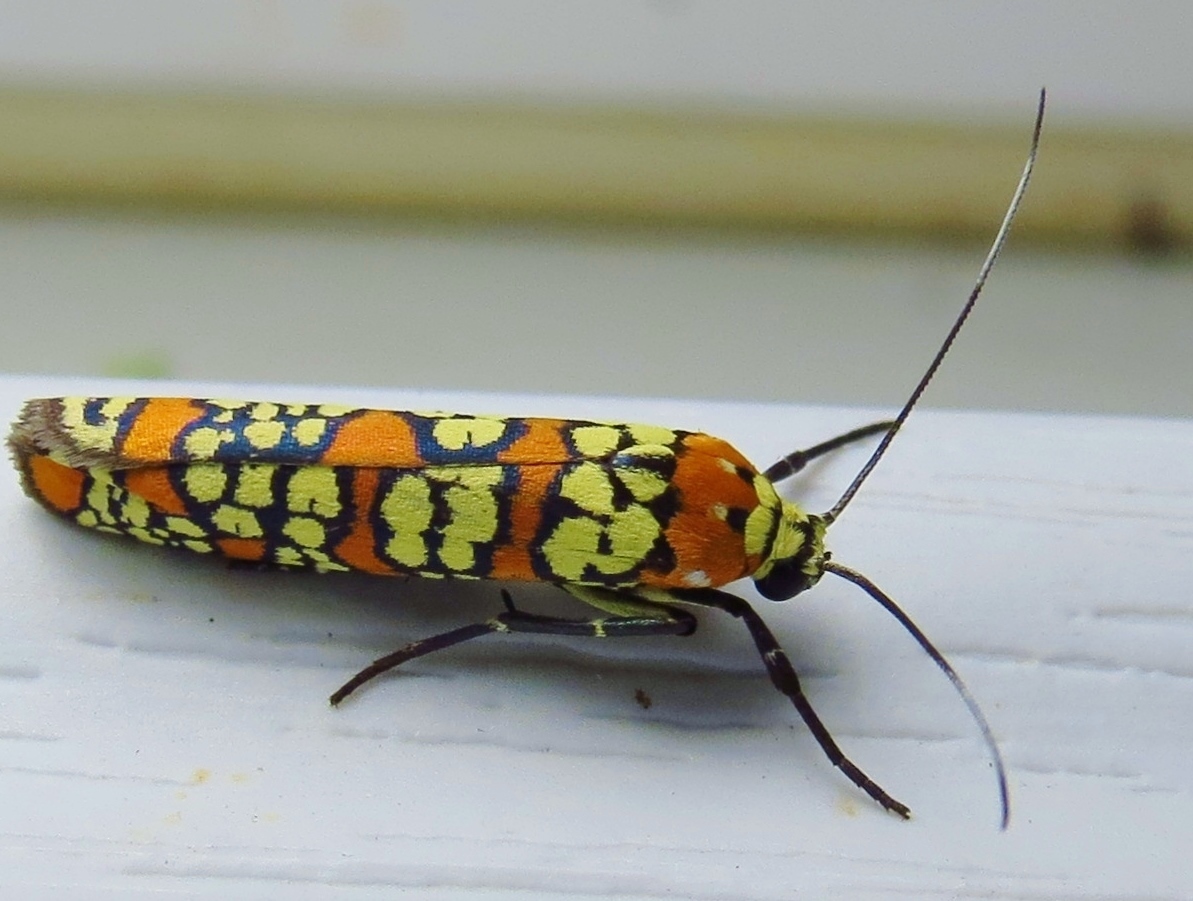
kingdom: Animalia
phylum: Arthropoda
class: Insecta
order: Lepidoptera
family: Attevidae
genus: Atteva
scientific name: Atteva punctella
